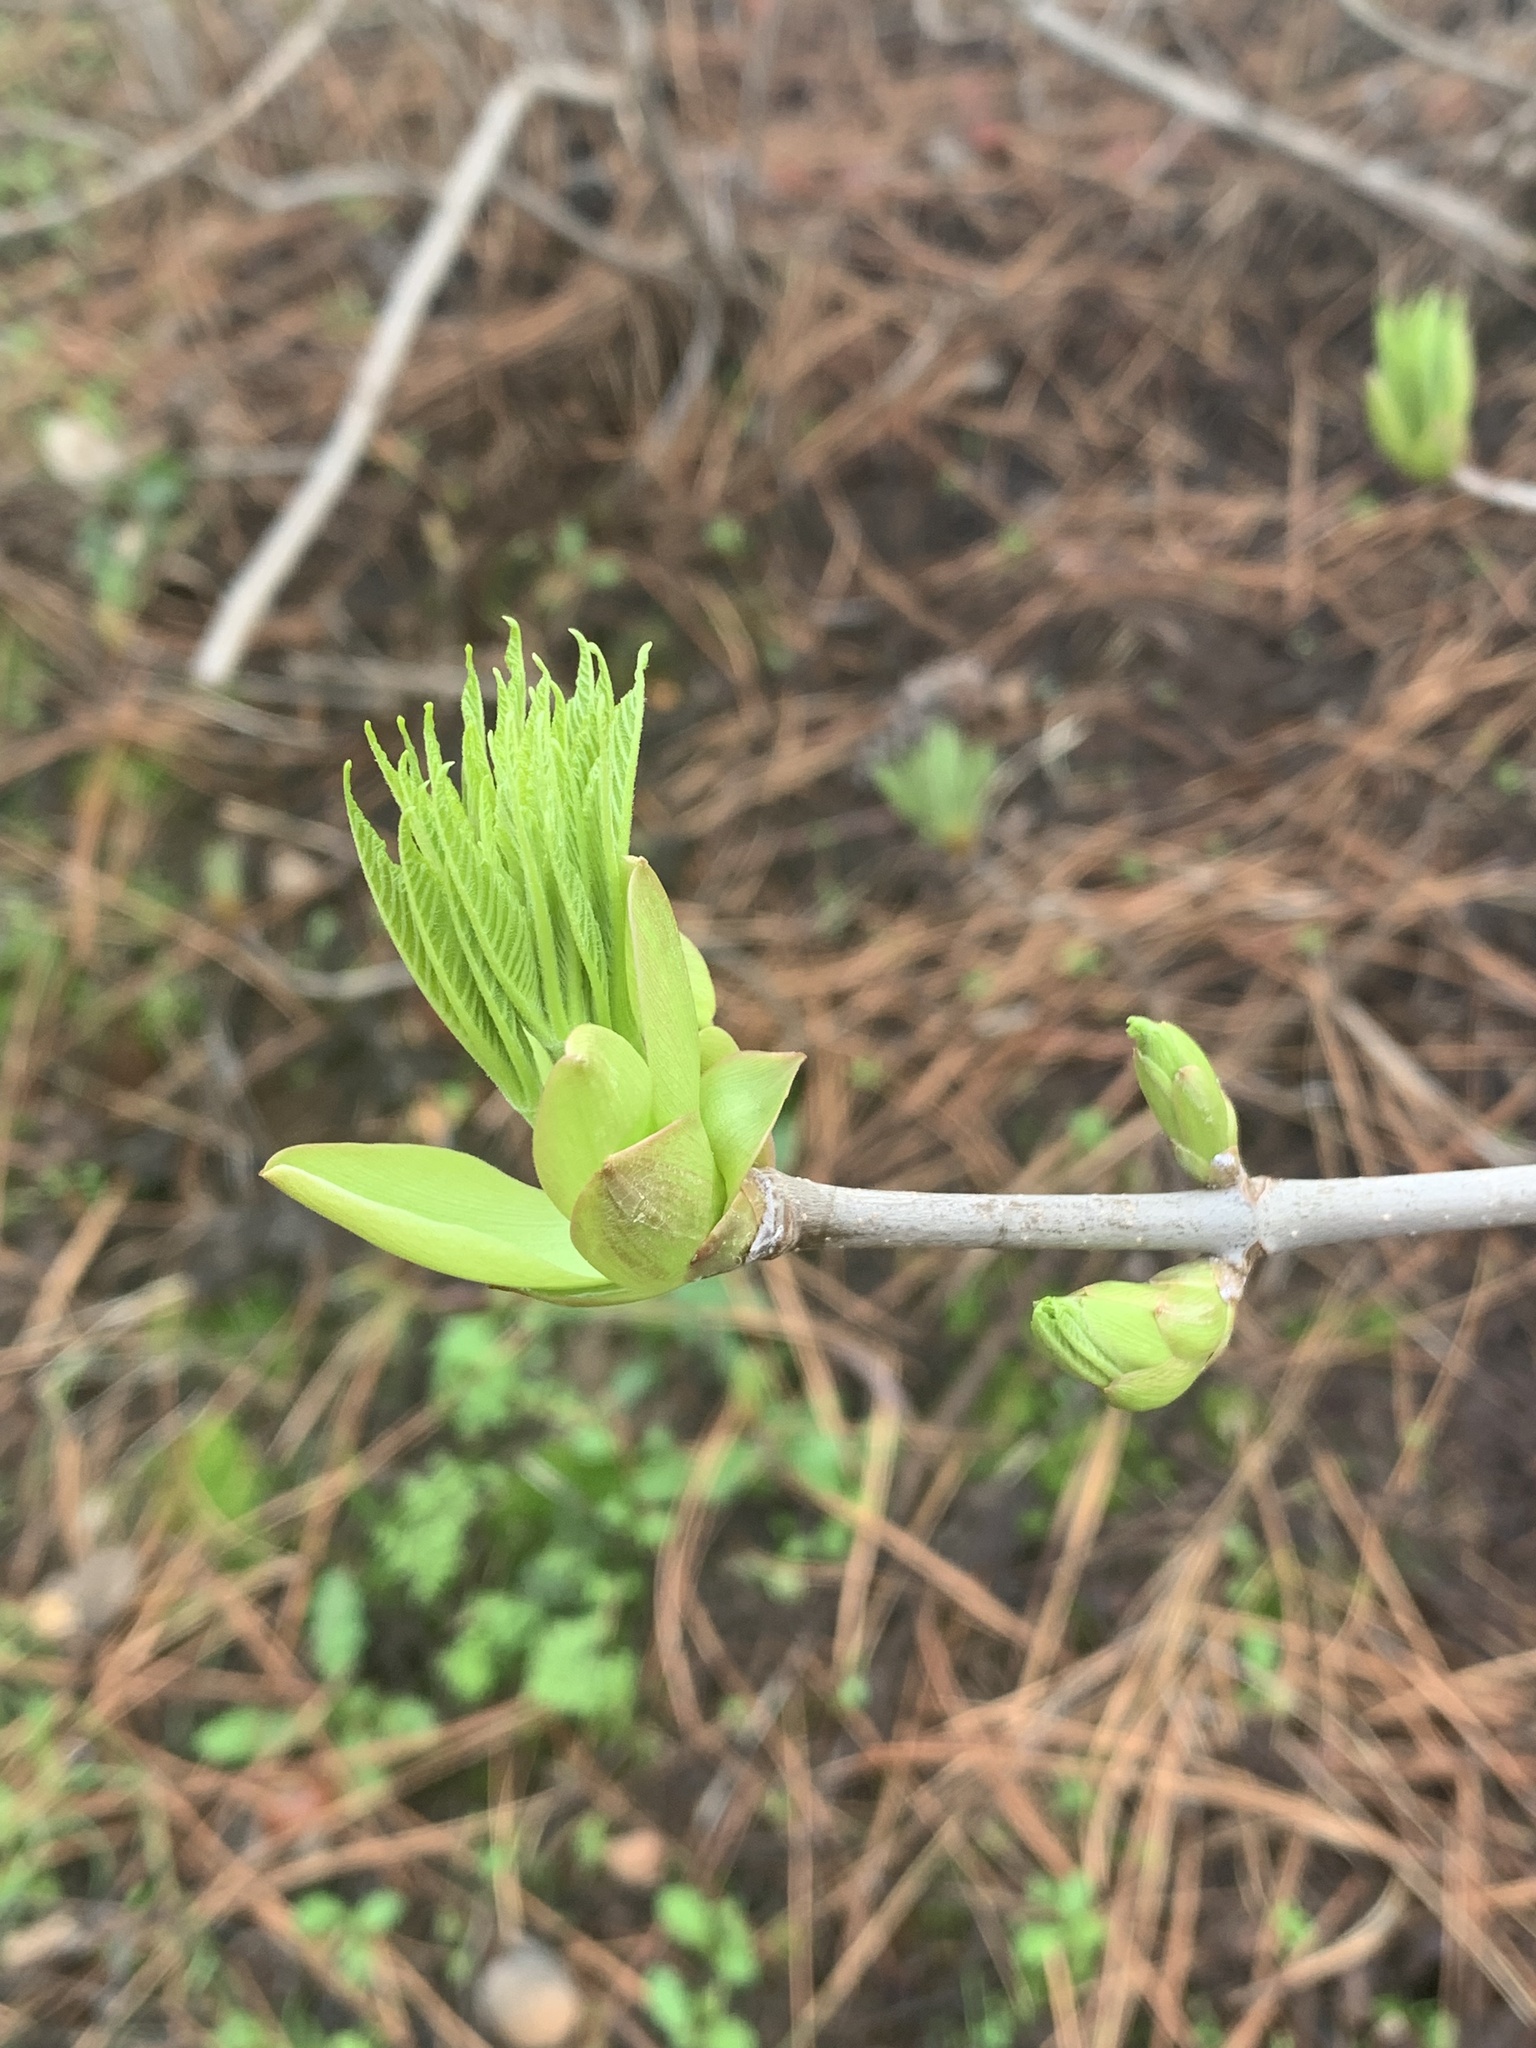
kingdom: Plantae
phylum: Tracheophyta
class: Magnoliopsida
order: Sapindales
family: Sapindaceae
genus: Aesculus
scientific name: Aesculus californica
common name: California buckeye
